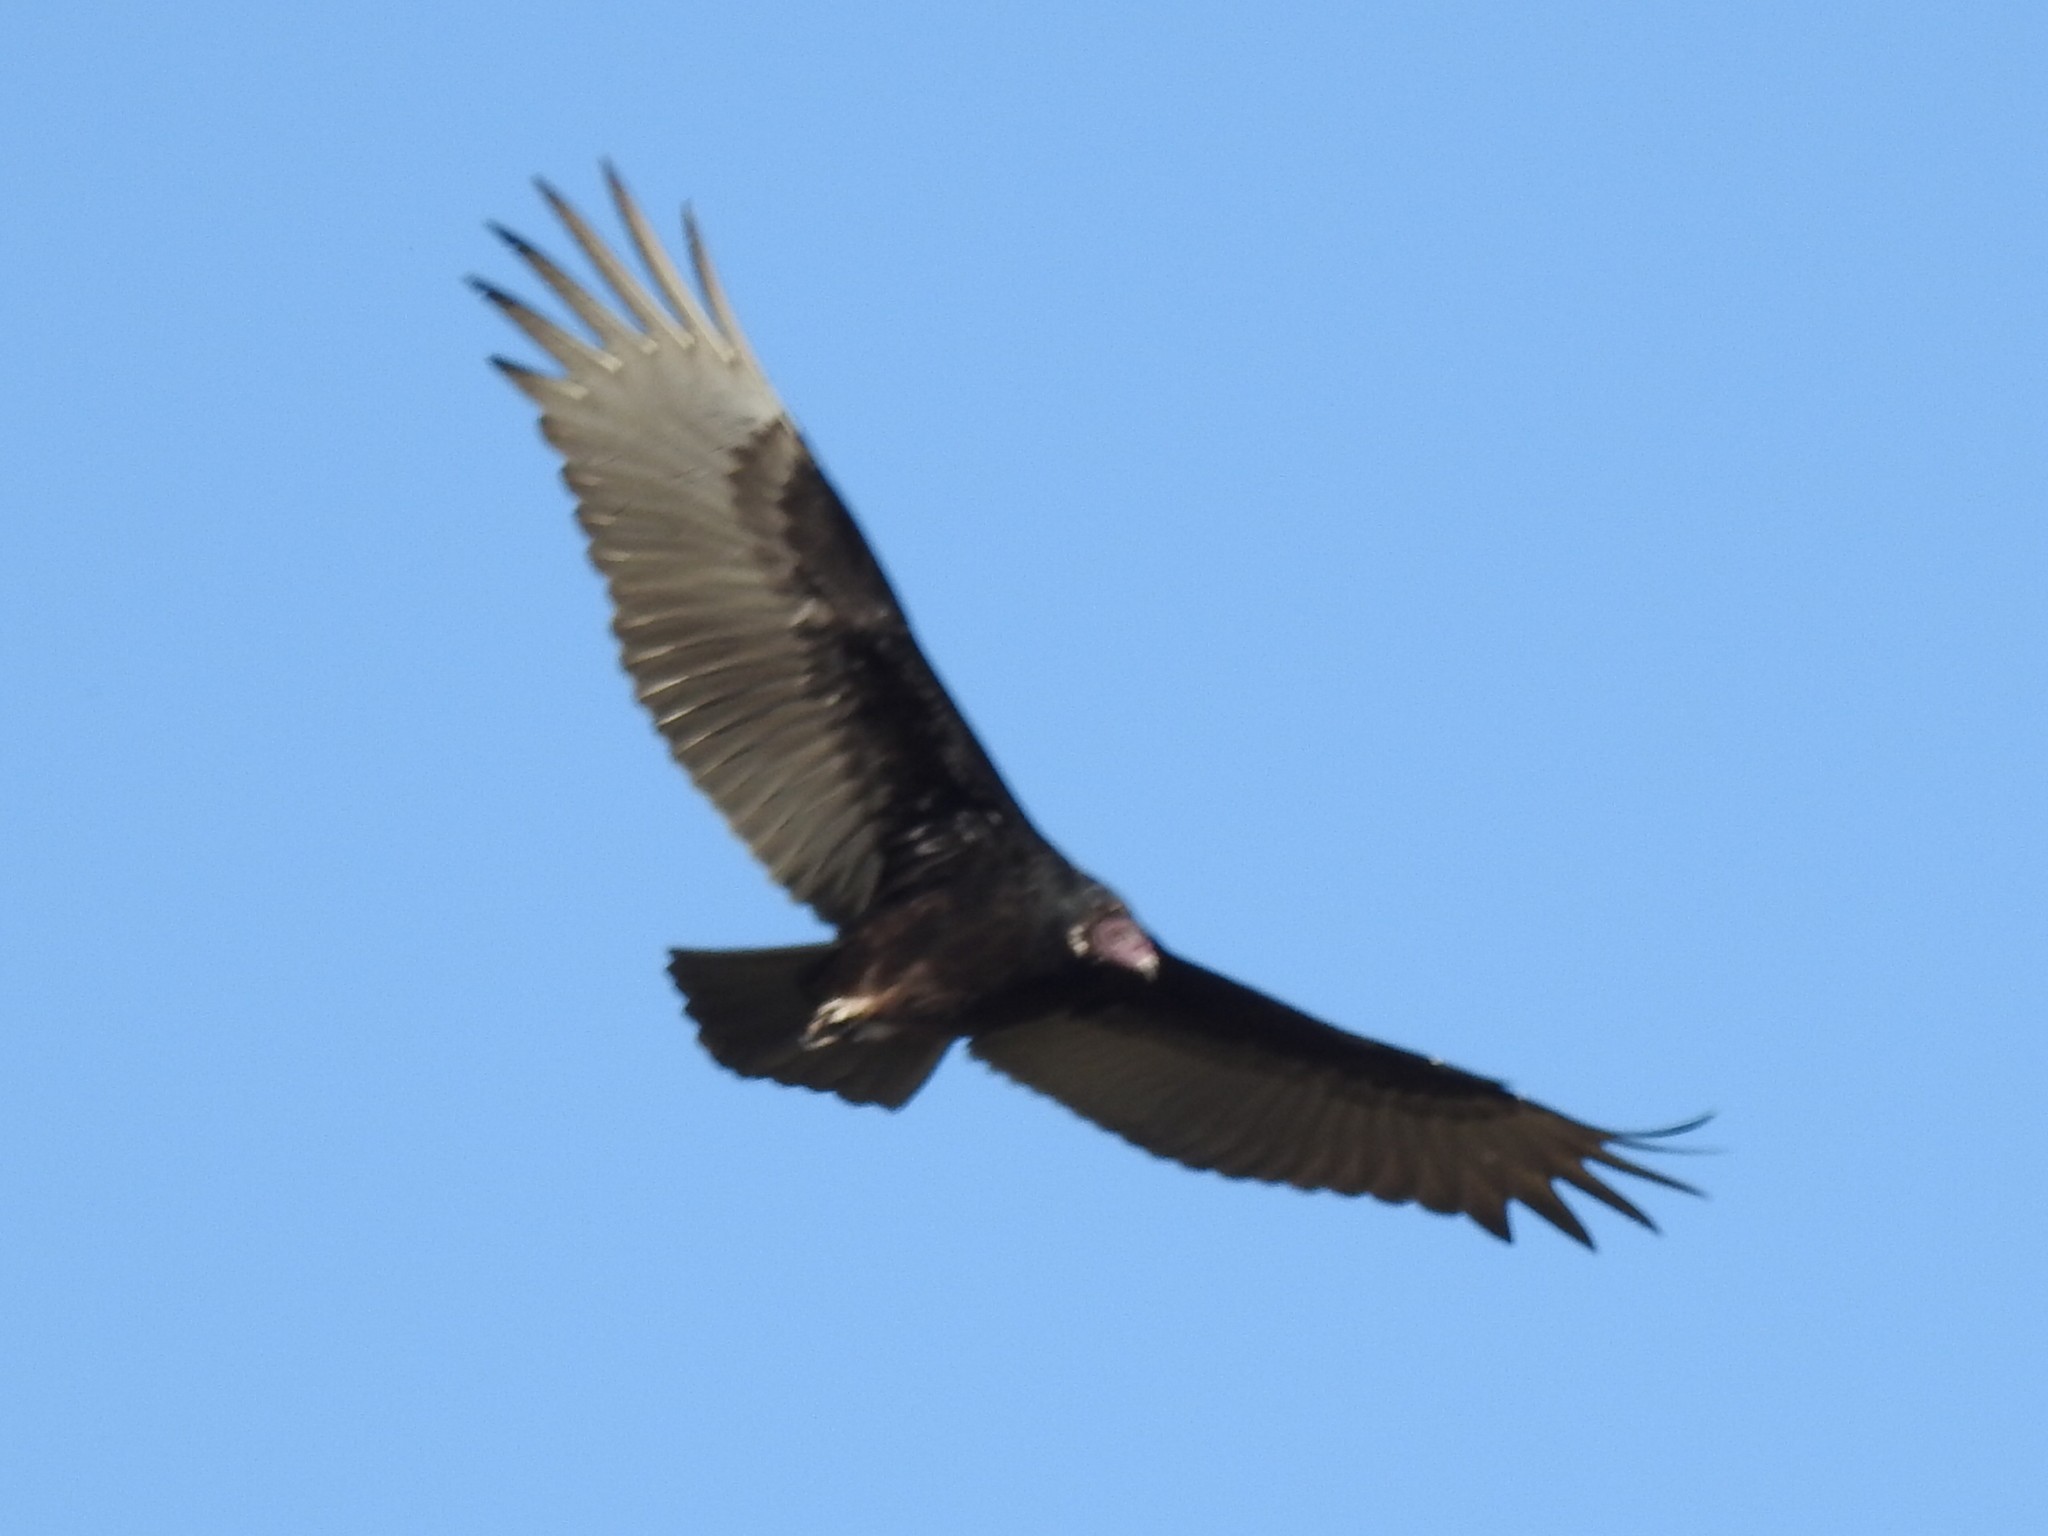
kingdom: Animalia
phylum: Chordata
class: Aves
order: Accipitriformes
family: Cathartidae
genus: Cathartes
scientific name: Cathartes aura
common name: Turkey vulture
